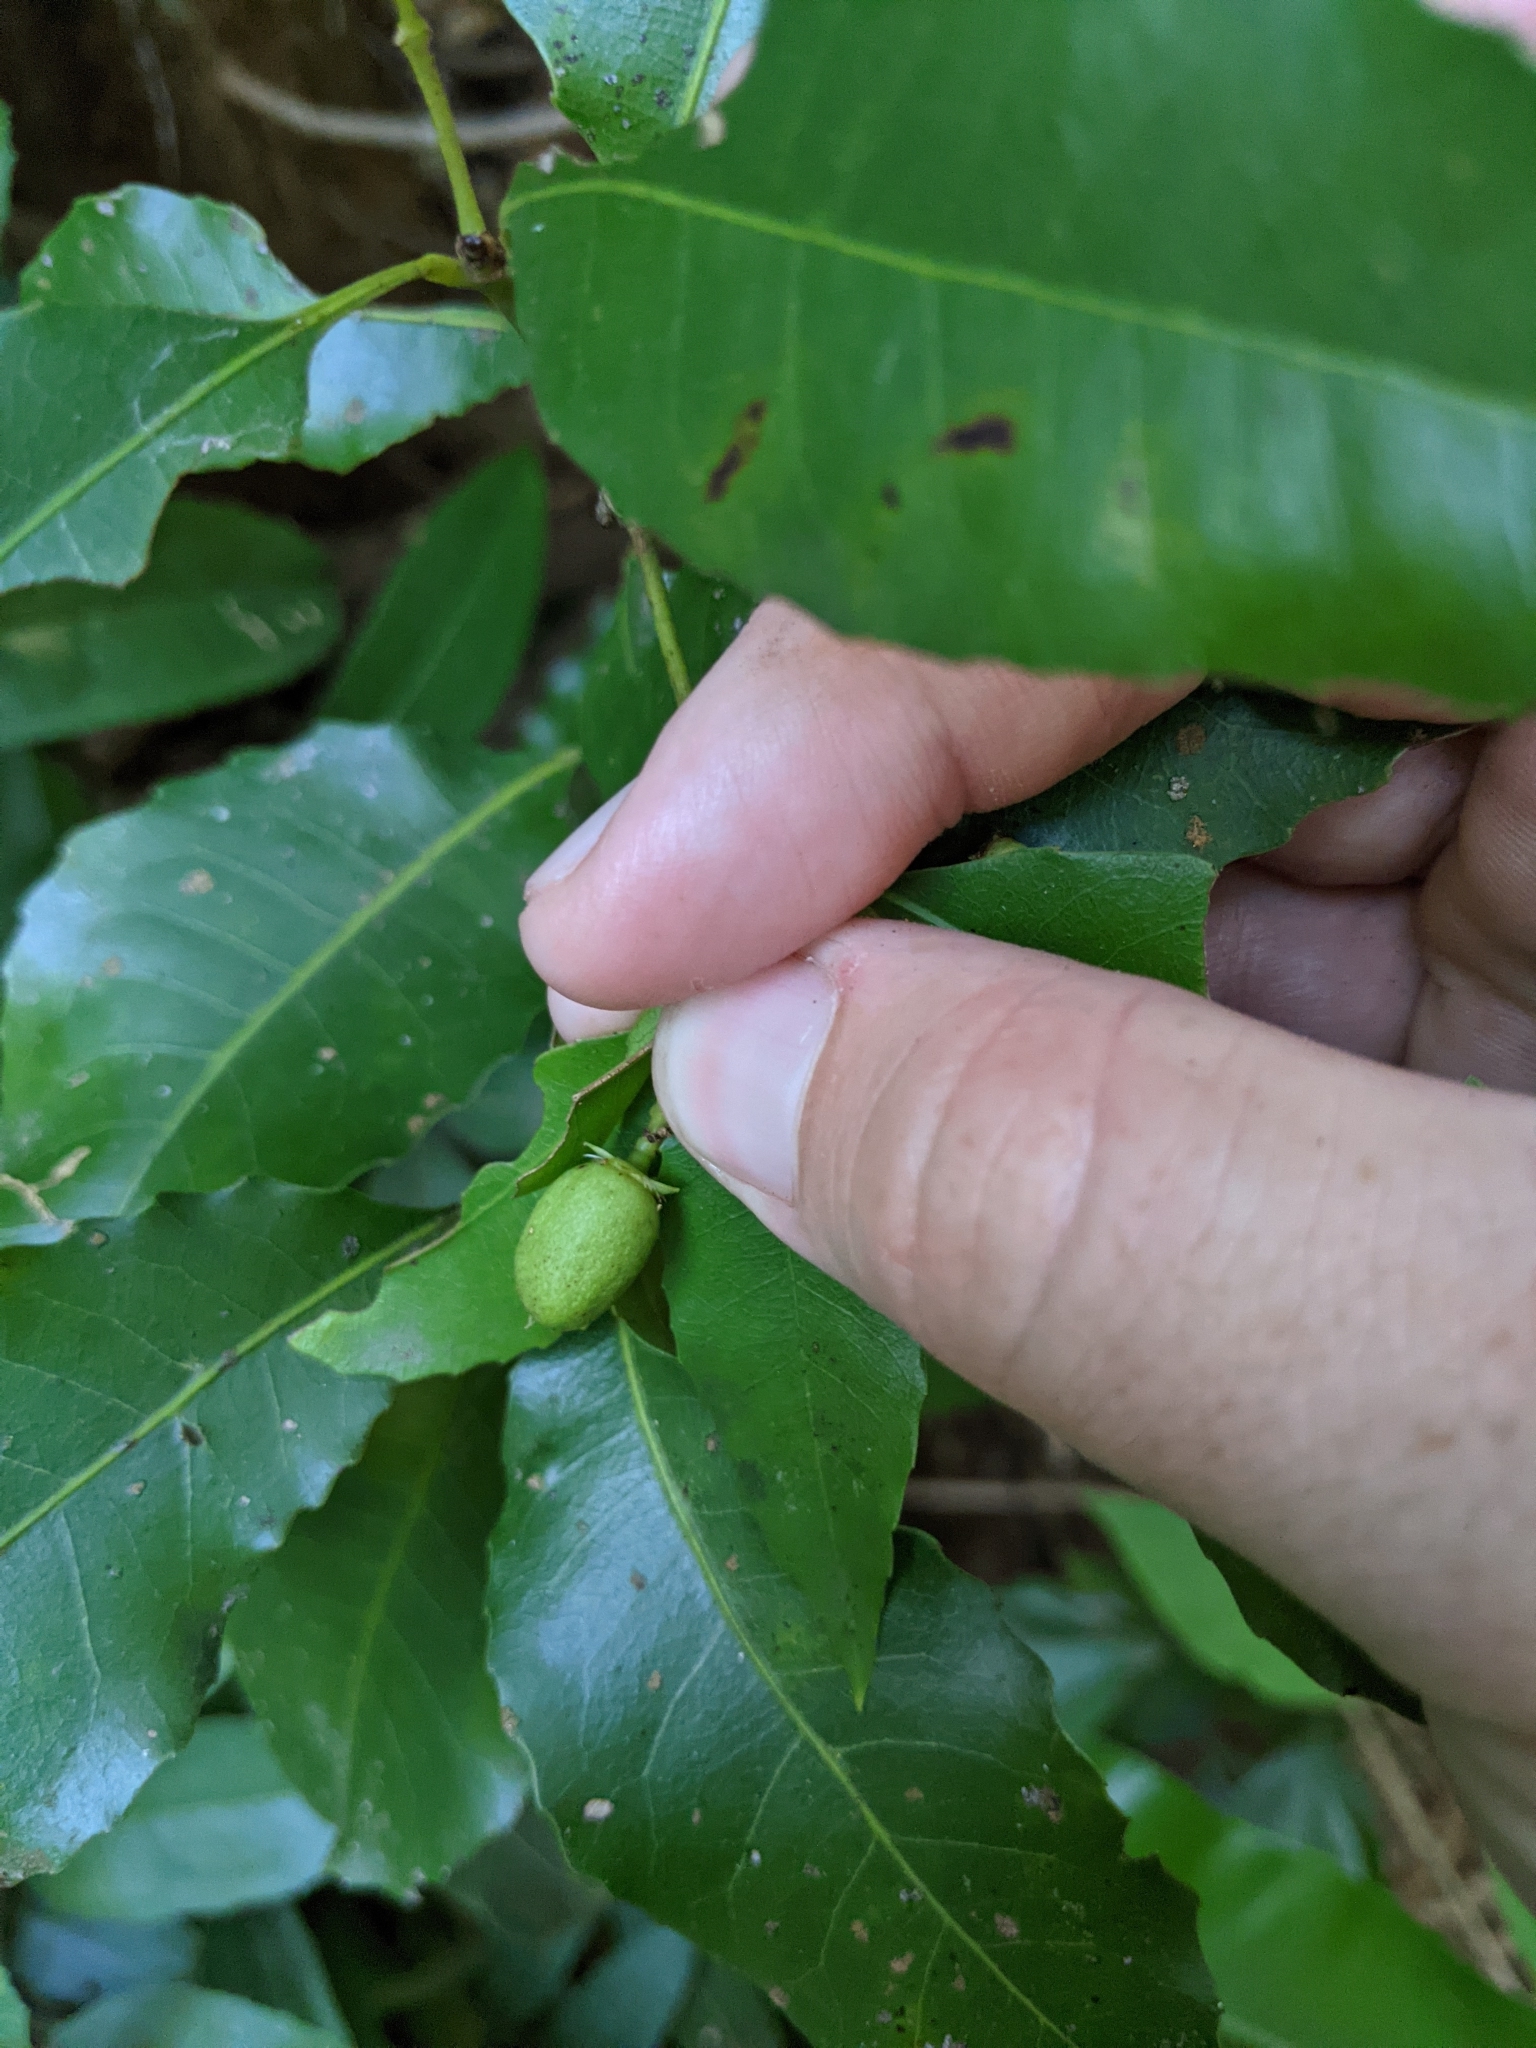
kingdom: Plantae
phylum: Tracheophyta
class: Magnoliopsida
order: Laurales
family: Monimiaceae
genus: Wilkiea
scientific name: Wilkiea hugeliana
